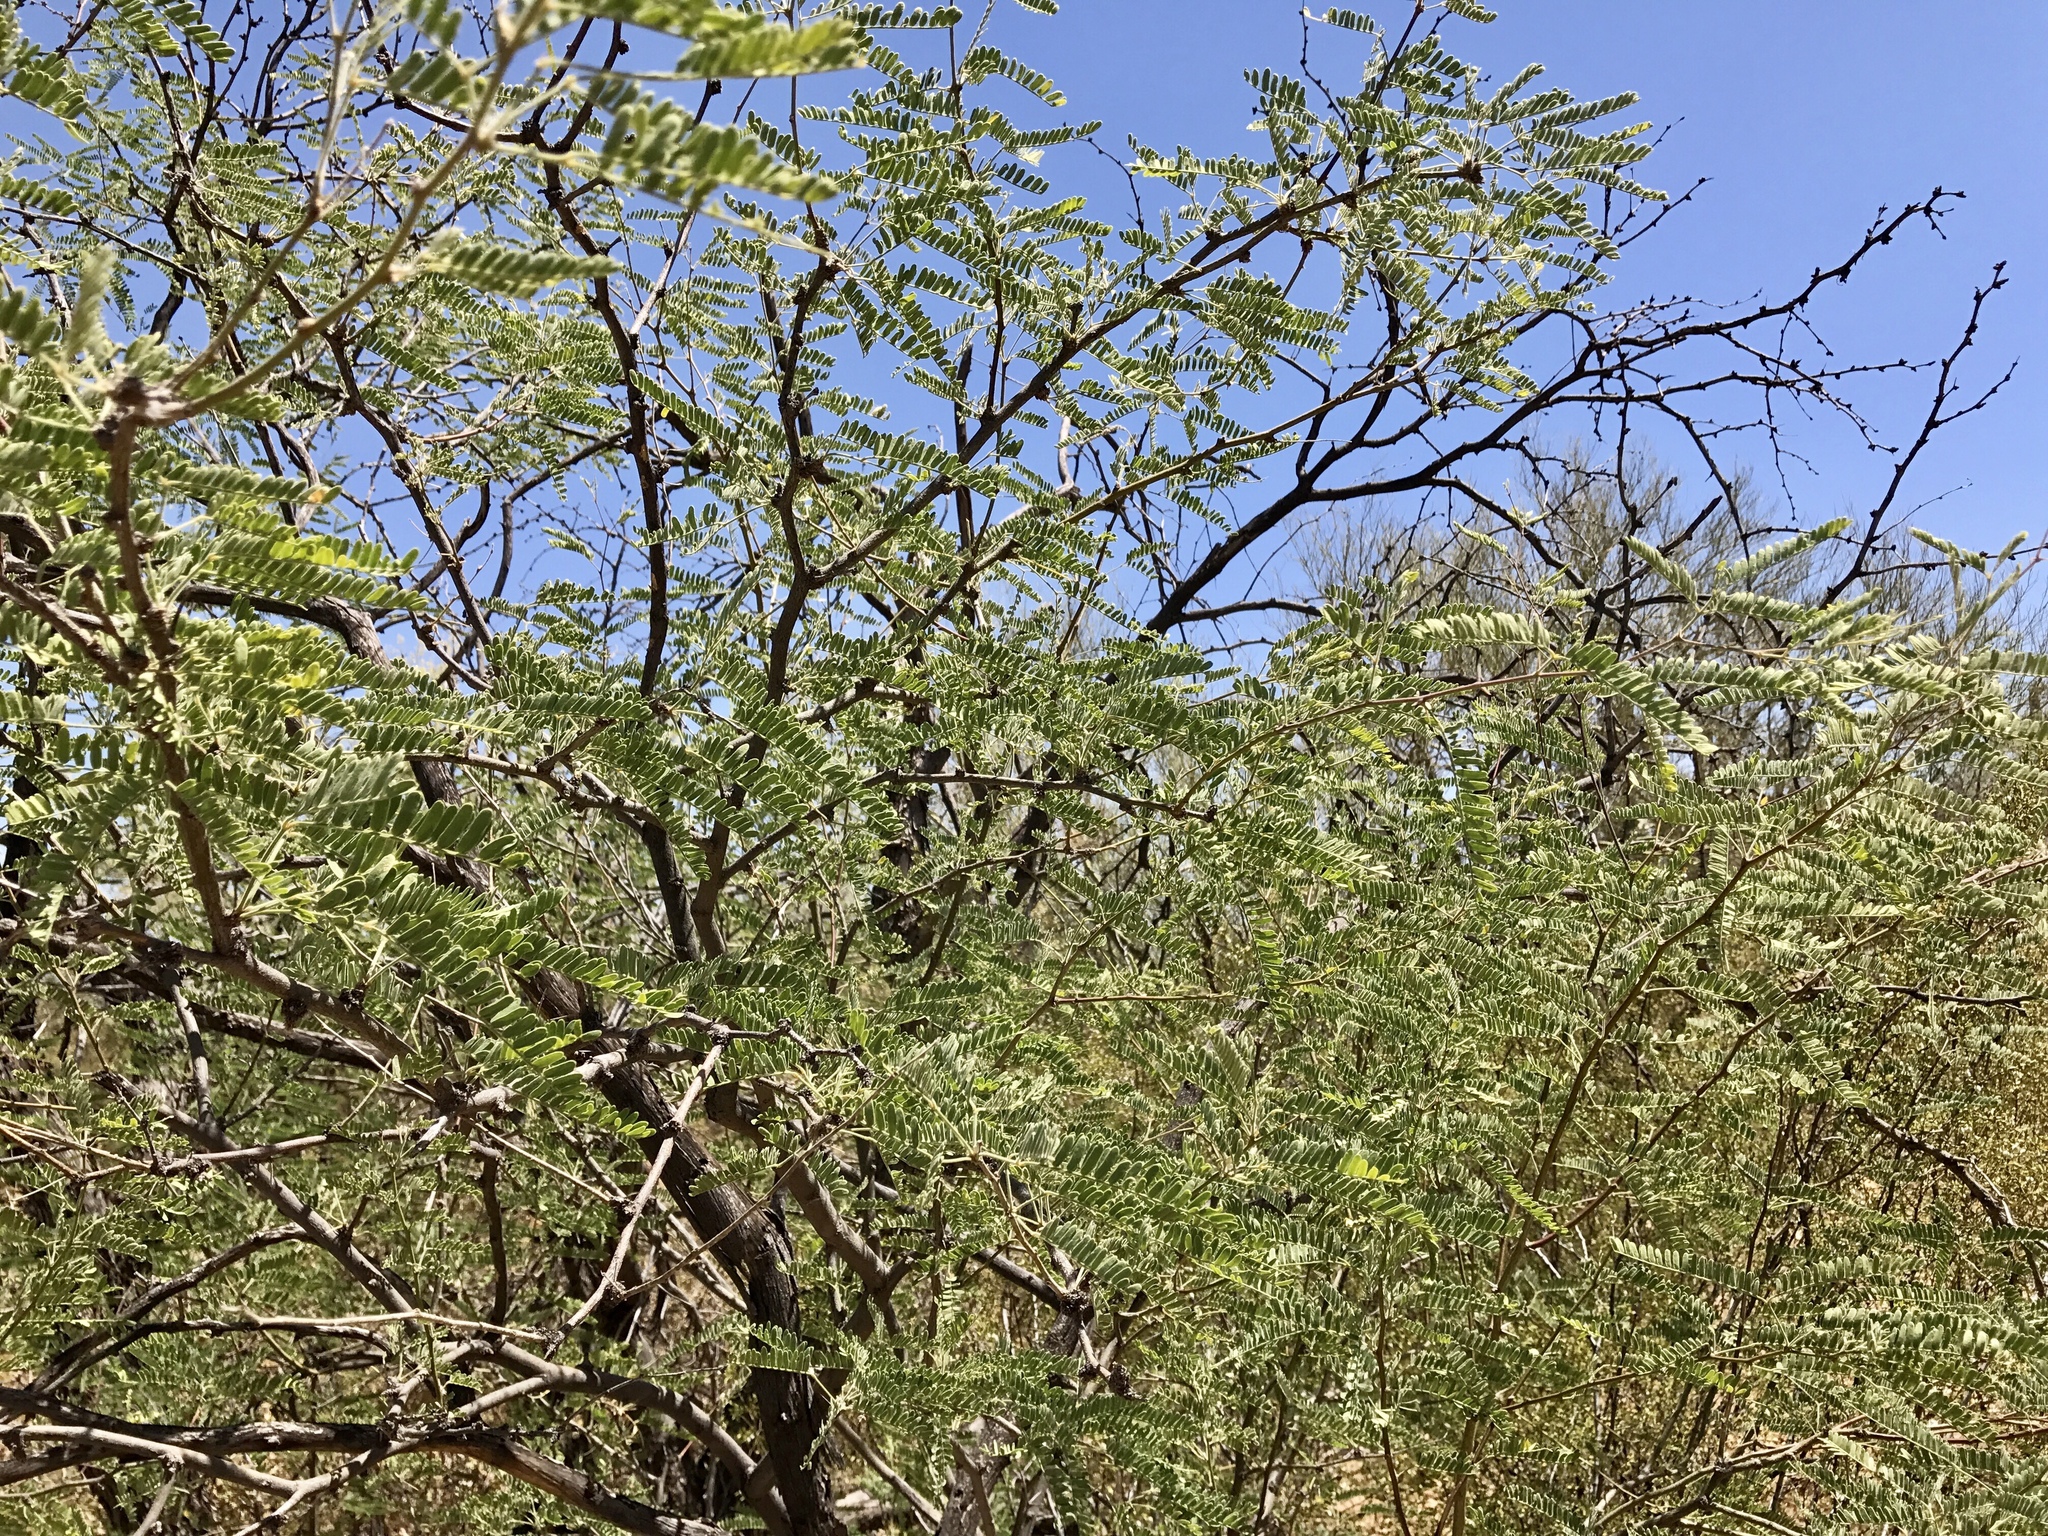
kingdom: Plantae
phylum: Tracheophyta
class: Magnoliopsida
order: Fabales
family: Fabaceae
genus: Prosopis
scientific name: Prosopis velutina
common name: Velvet mesquite
